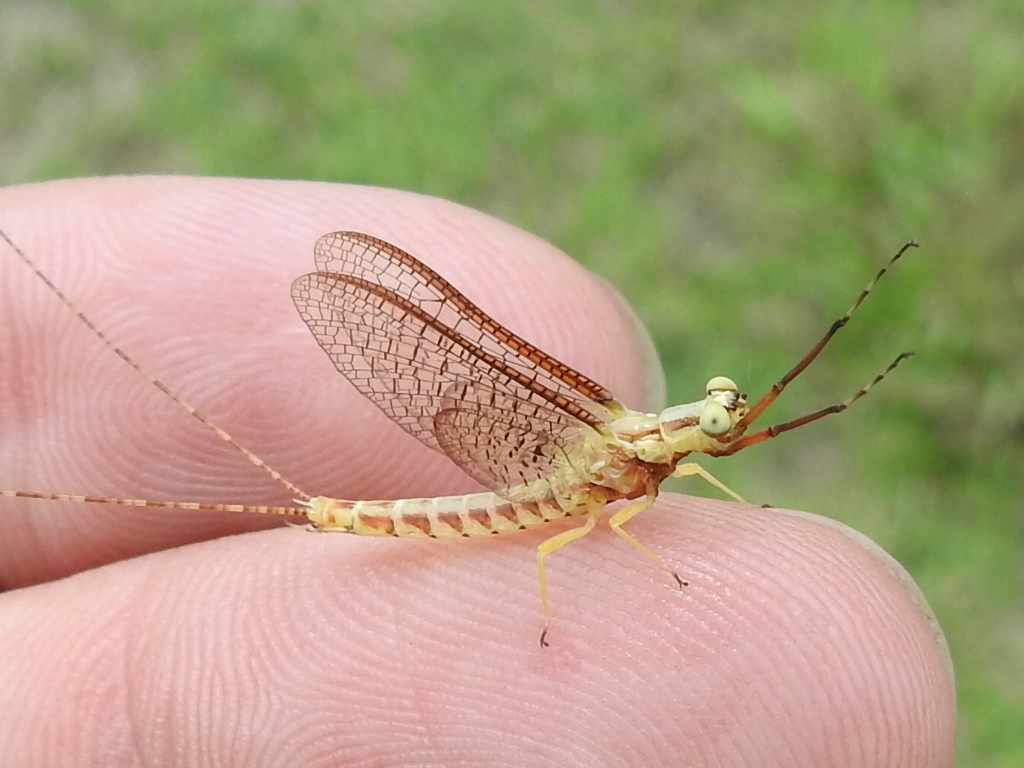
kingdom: Animalia
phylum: Arthropoda
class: Insecta
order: Ephemeroptera
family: Ephemeridae
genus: Hexagenia
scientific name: Hexagenia limbata
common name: Giant mayfly
